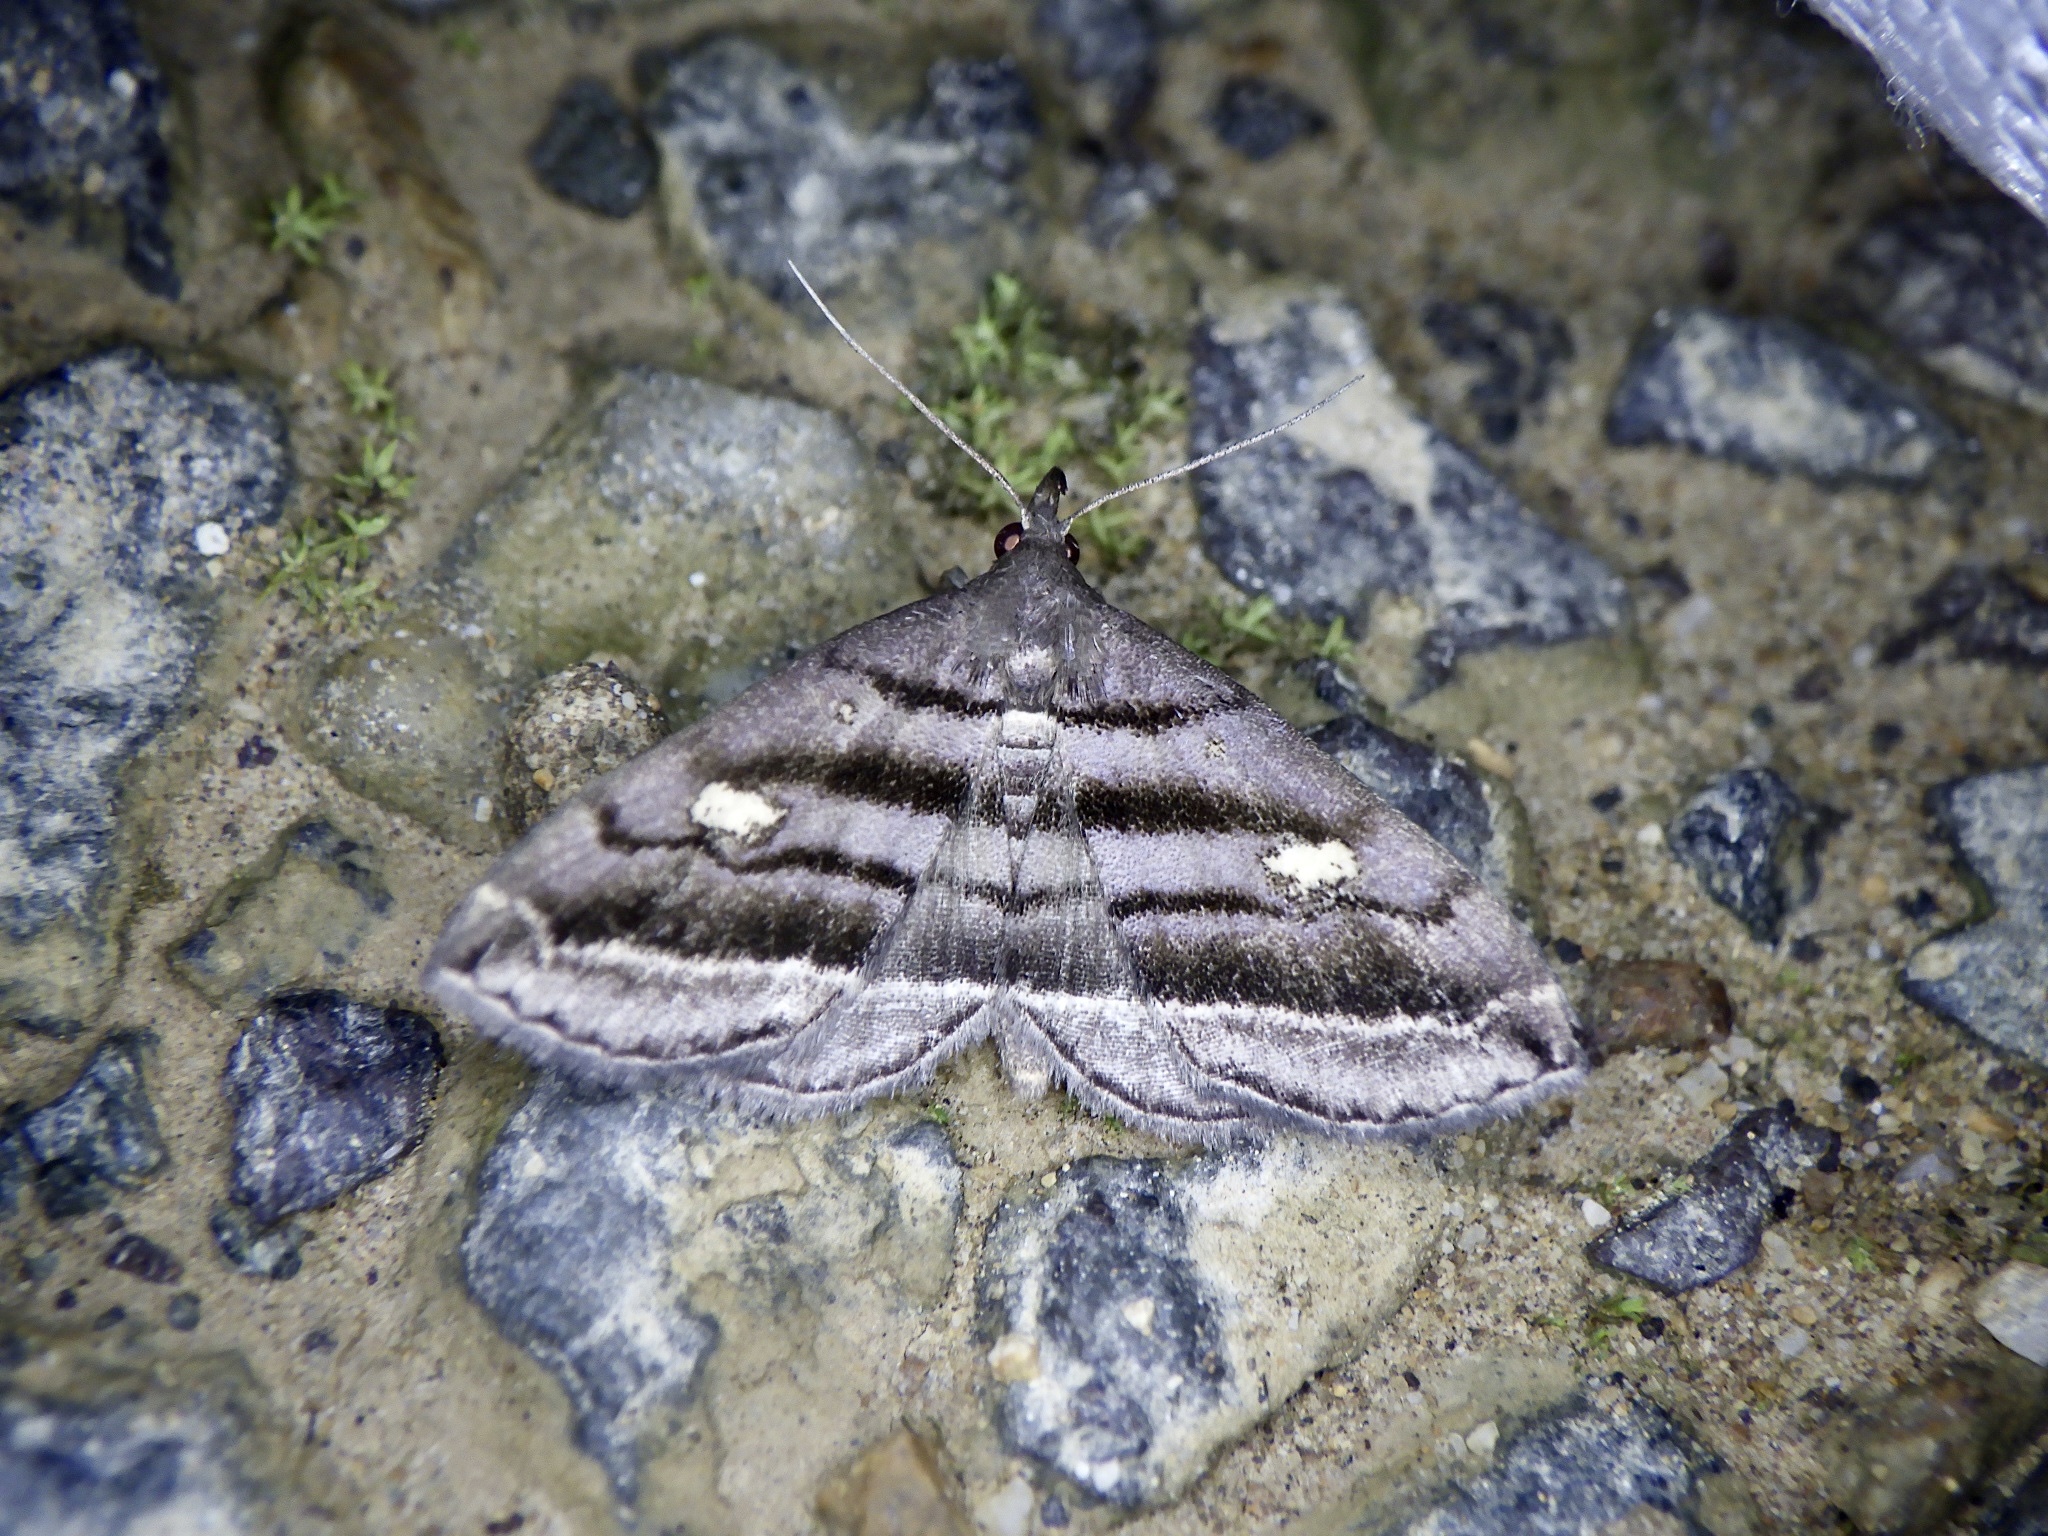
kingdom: Animalia
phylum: Arthropoda
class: Insecta
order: Lepidoptera
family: Erebidae
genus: Paracolax
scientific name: Paracolax pryeri
